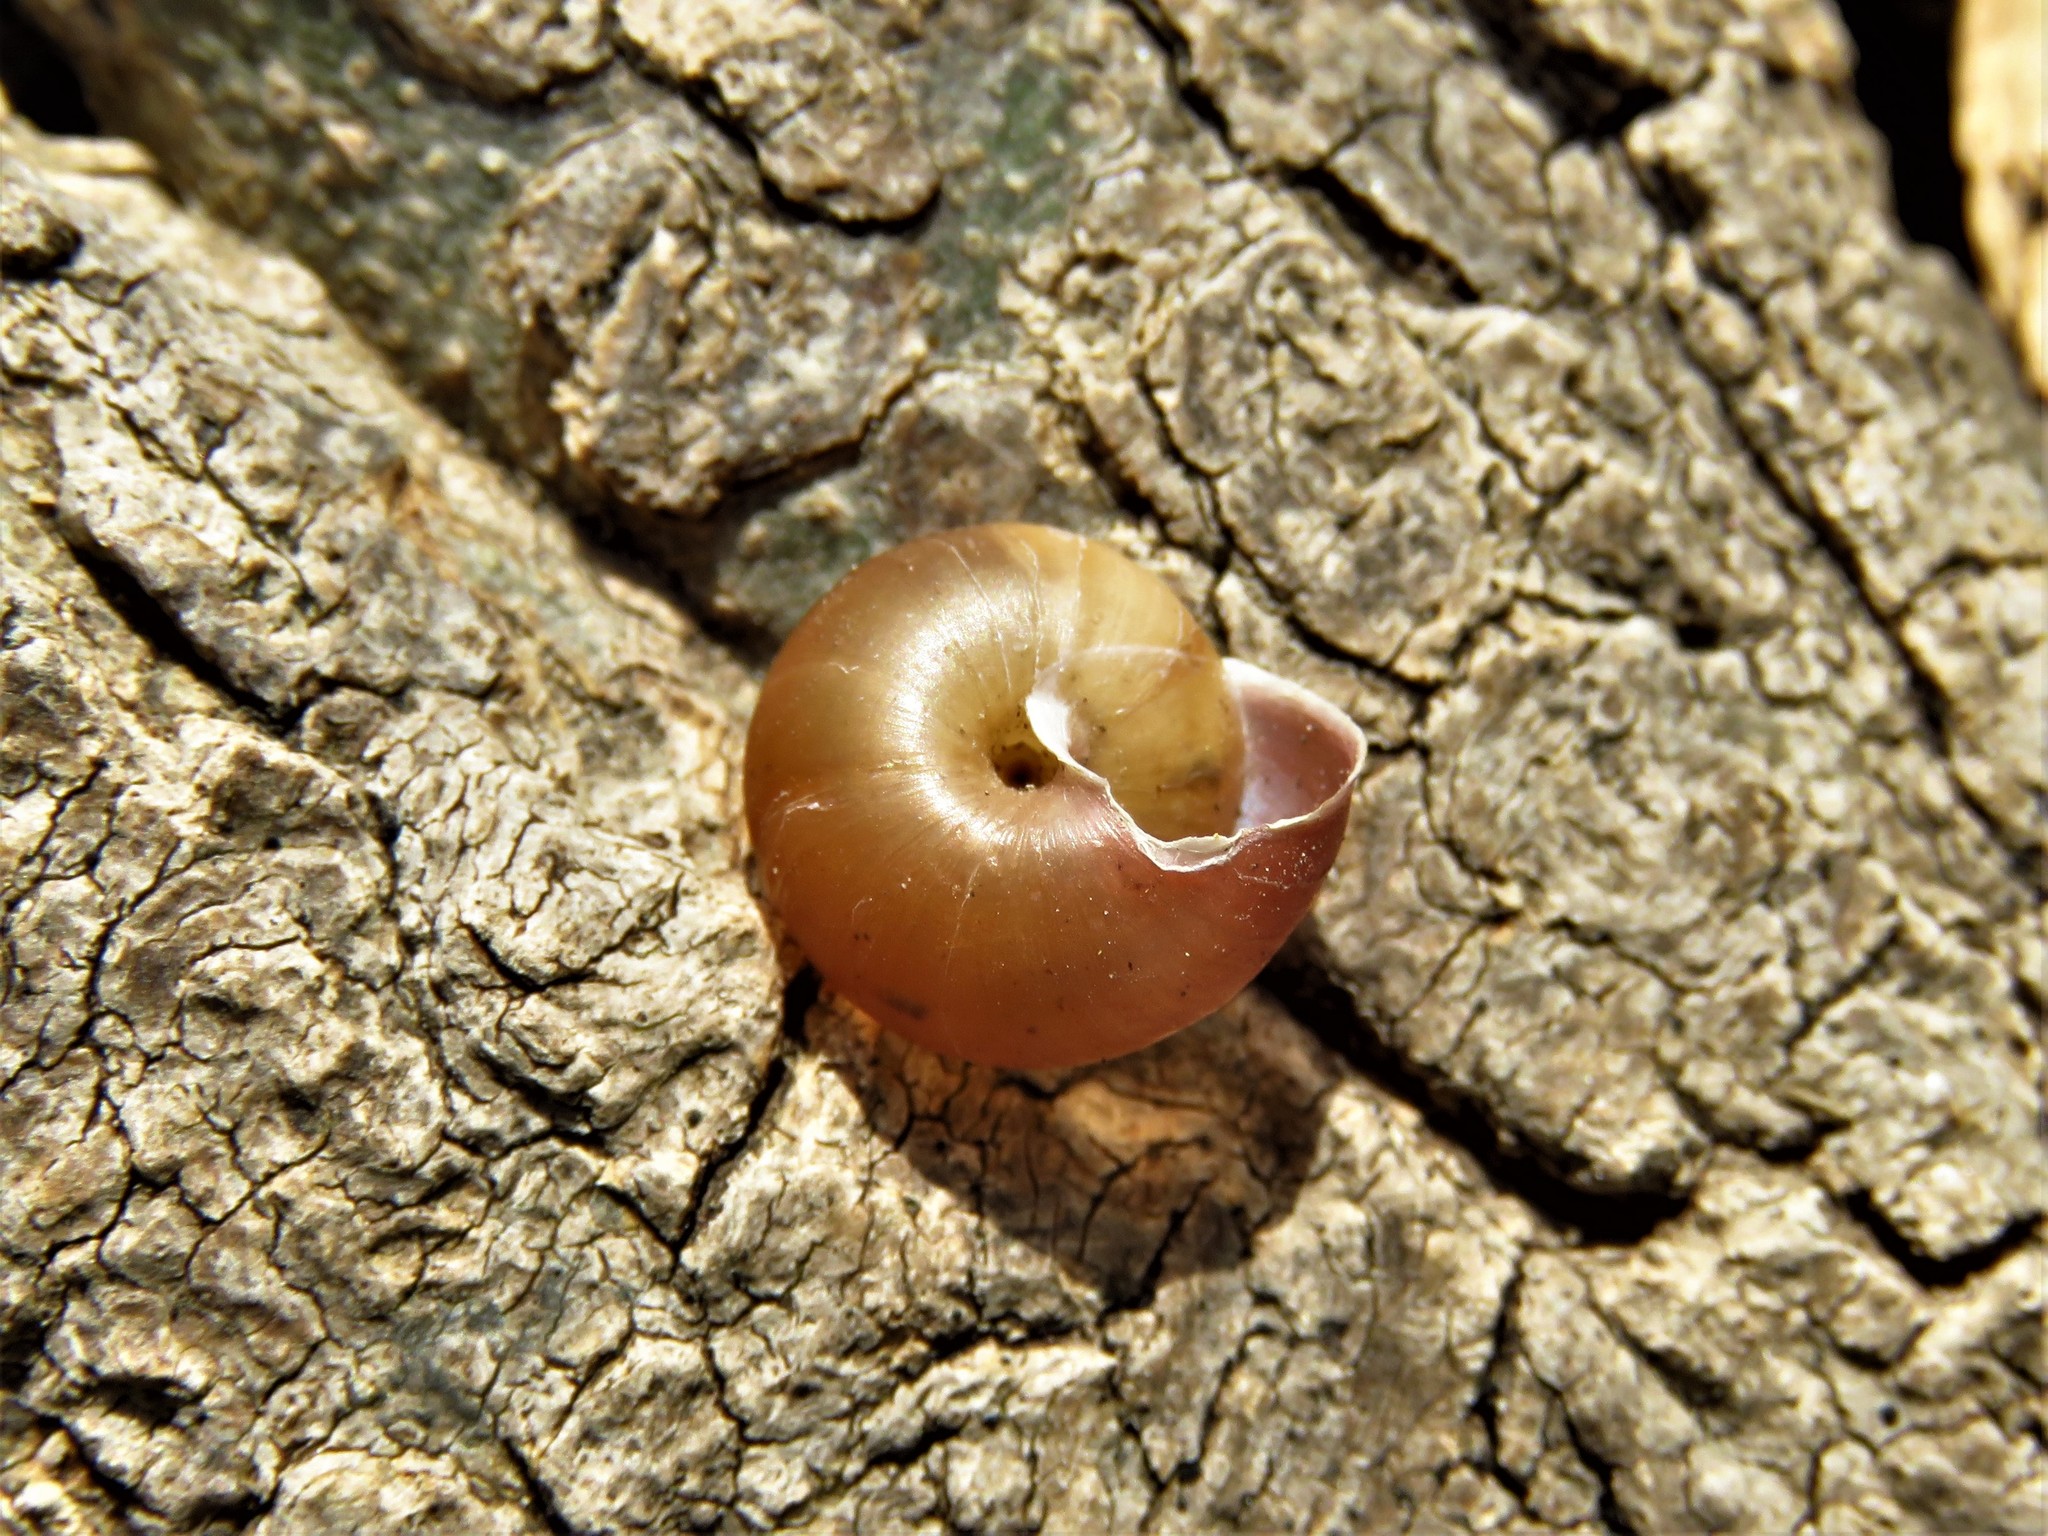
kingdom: Animalia
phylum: Mollusca
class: Gastropoda
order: Stylommatophora
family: Camaenidae
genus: Bradybaena
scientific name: Bradybaena similaris
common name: Asian trampsnail
